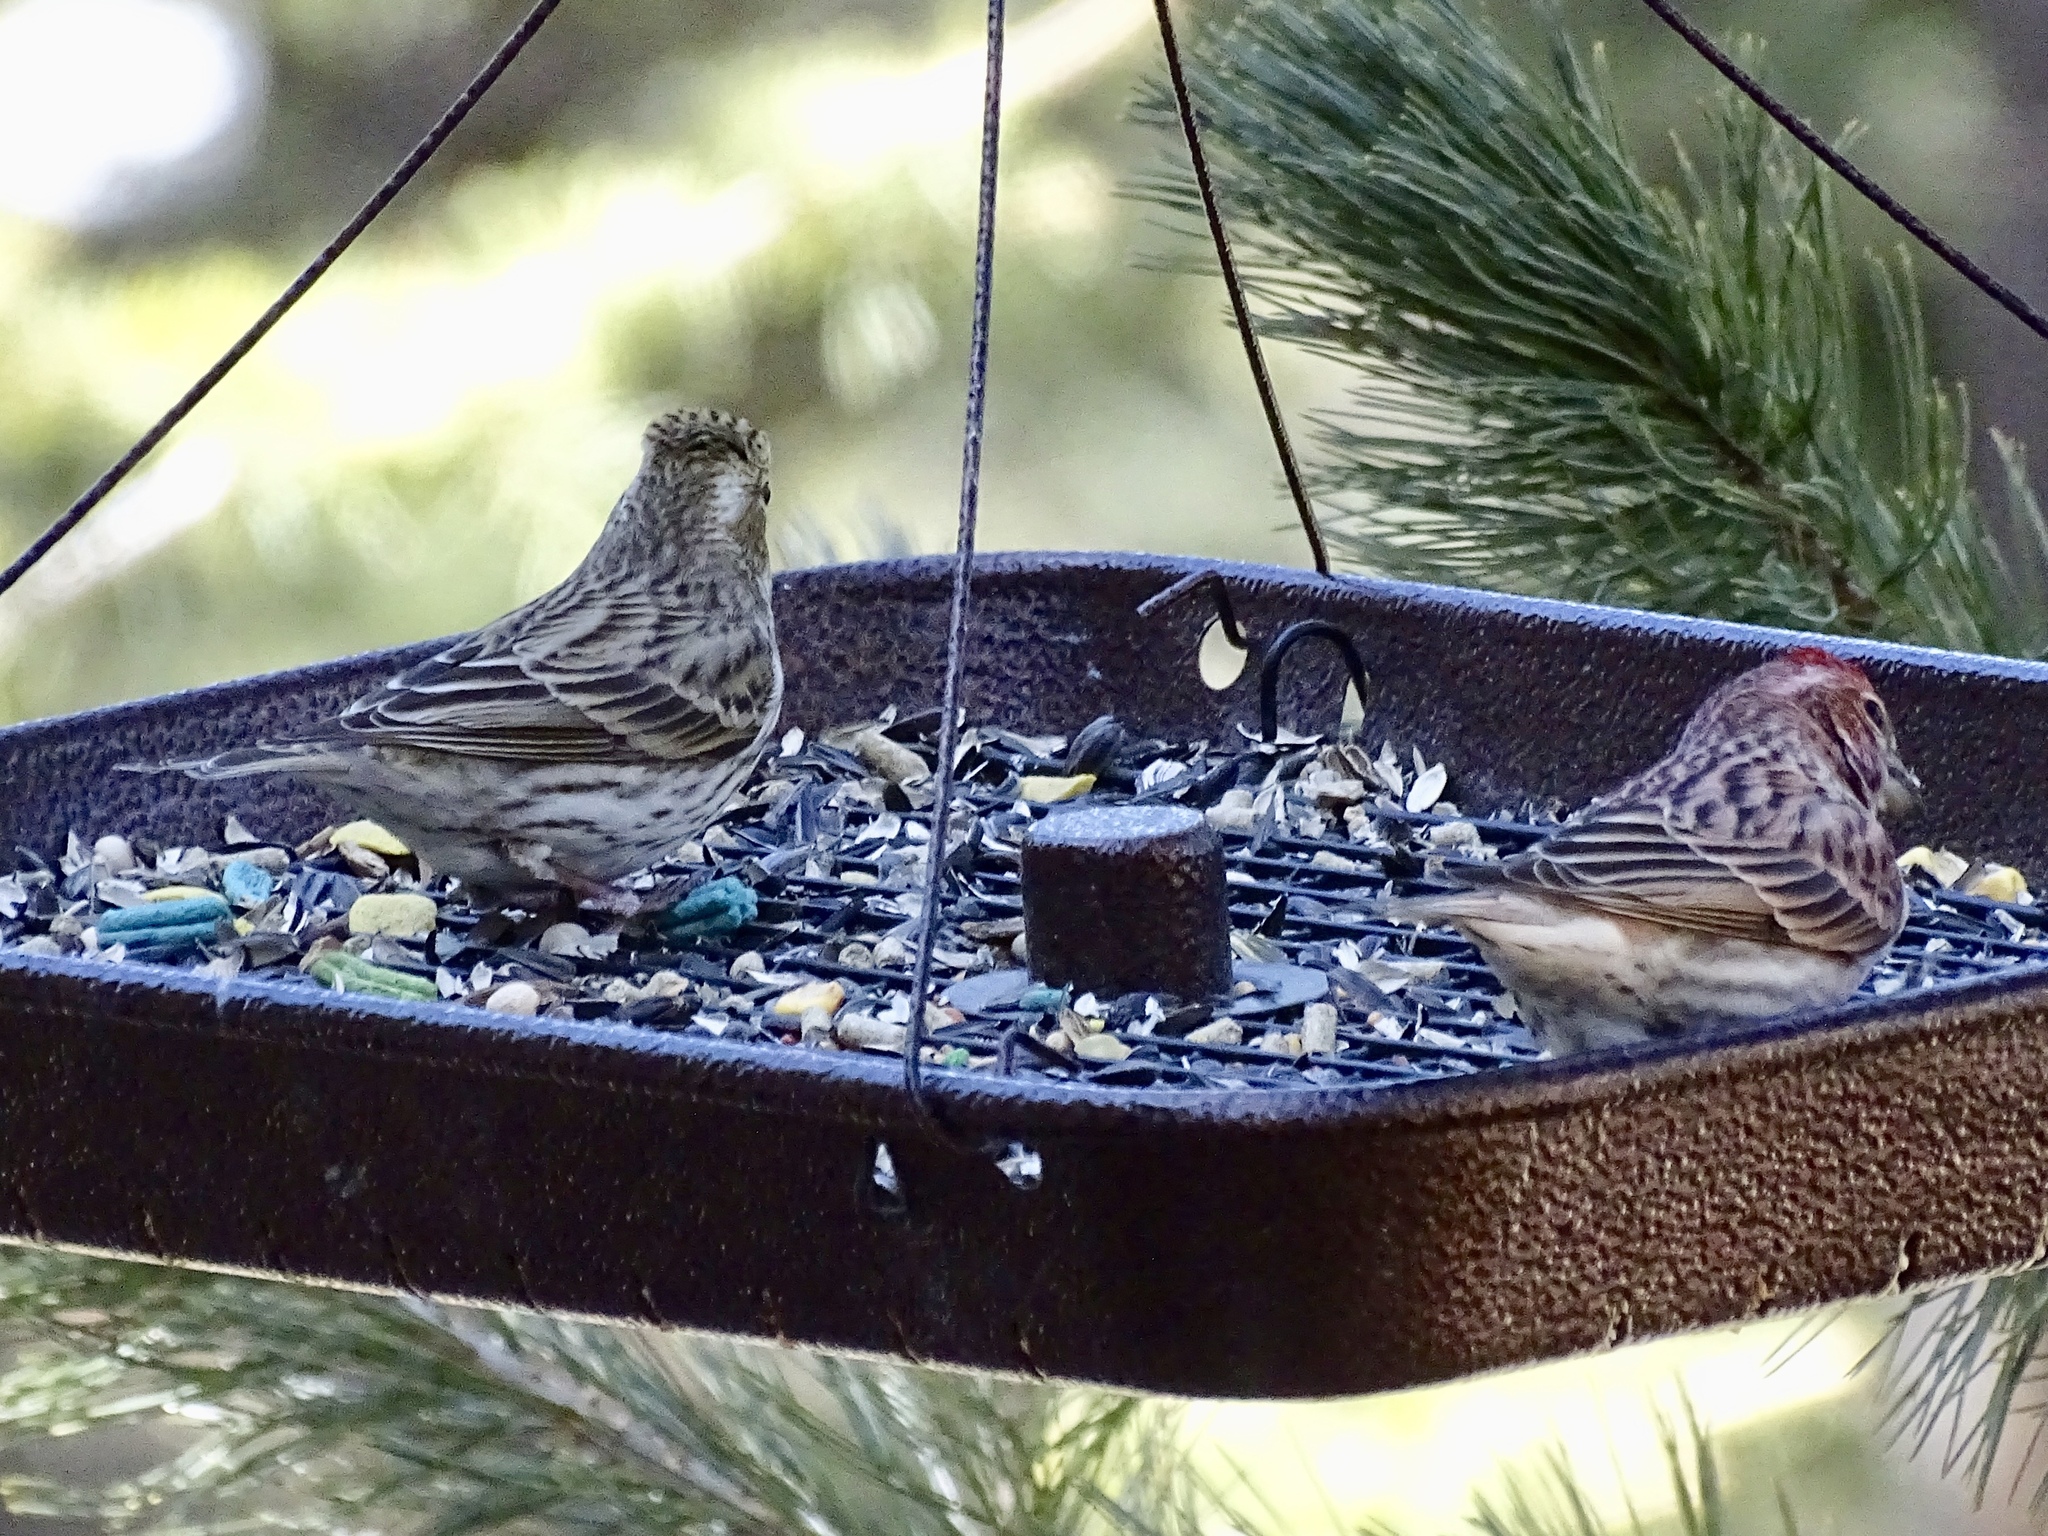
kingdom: Animalia
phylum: Chordata
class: Aves
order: Passeriformes
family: Fringillidae
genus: Haemorhous
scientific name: Haemorhous cassinii
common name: Cassin's finch
